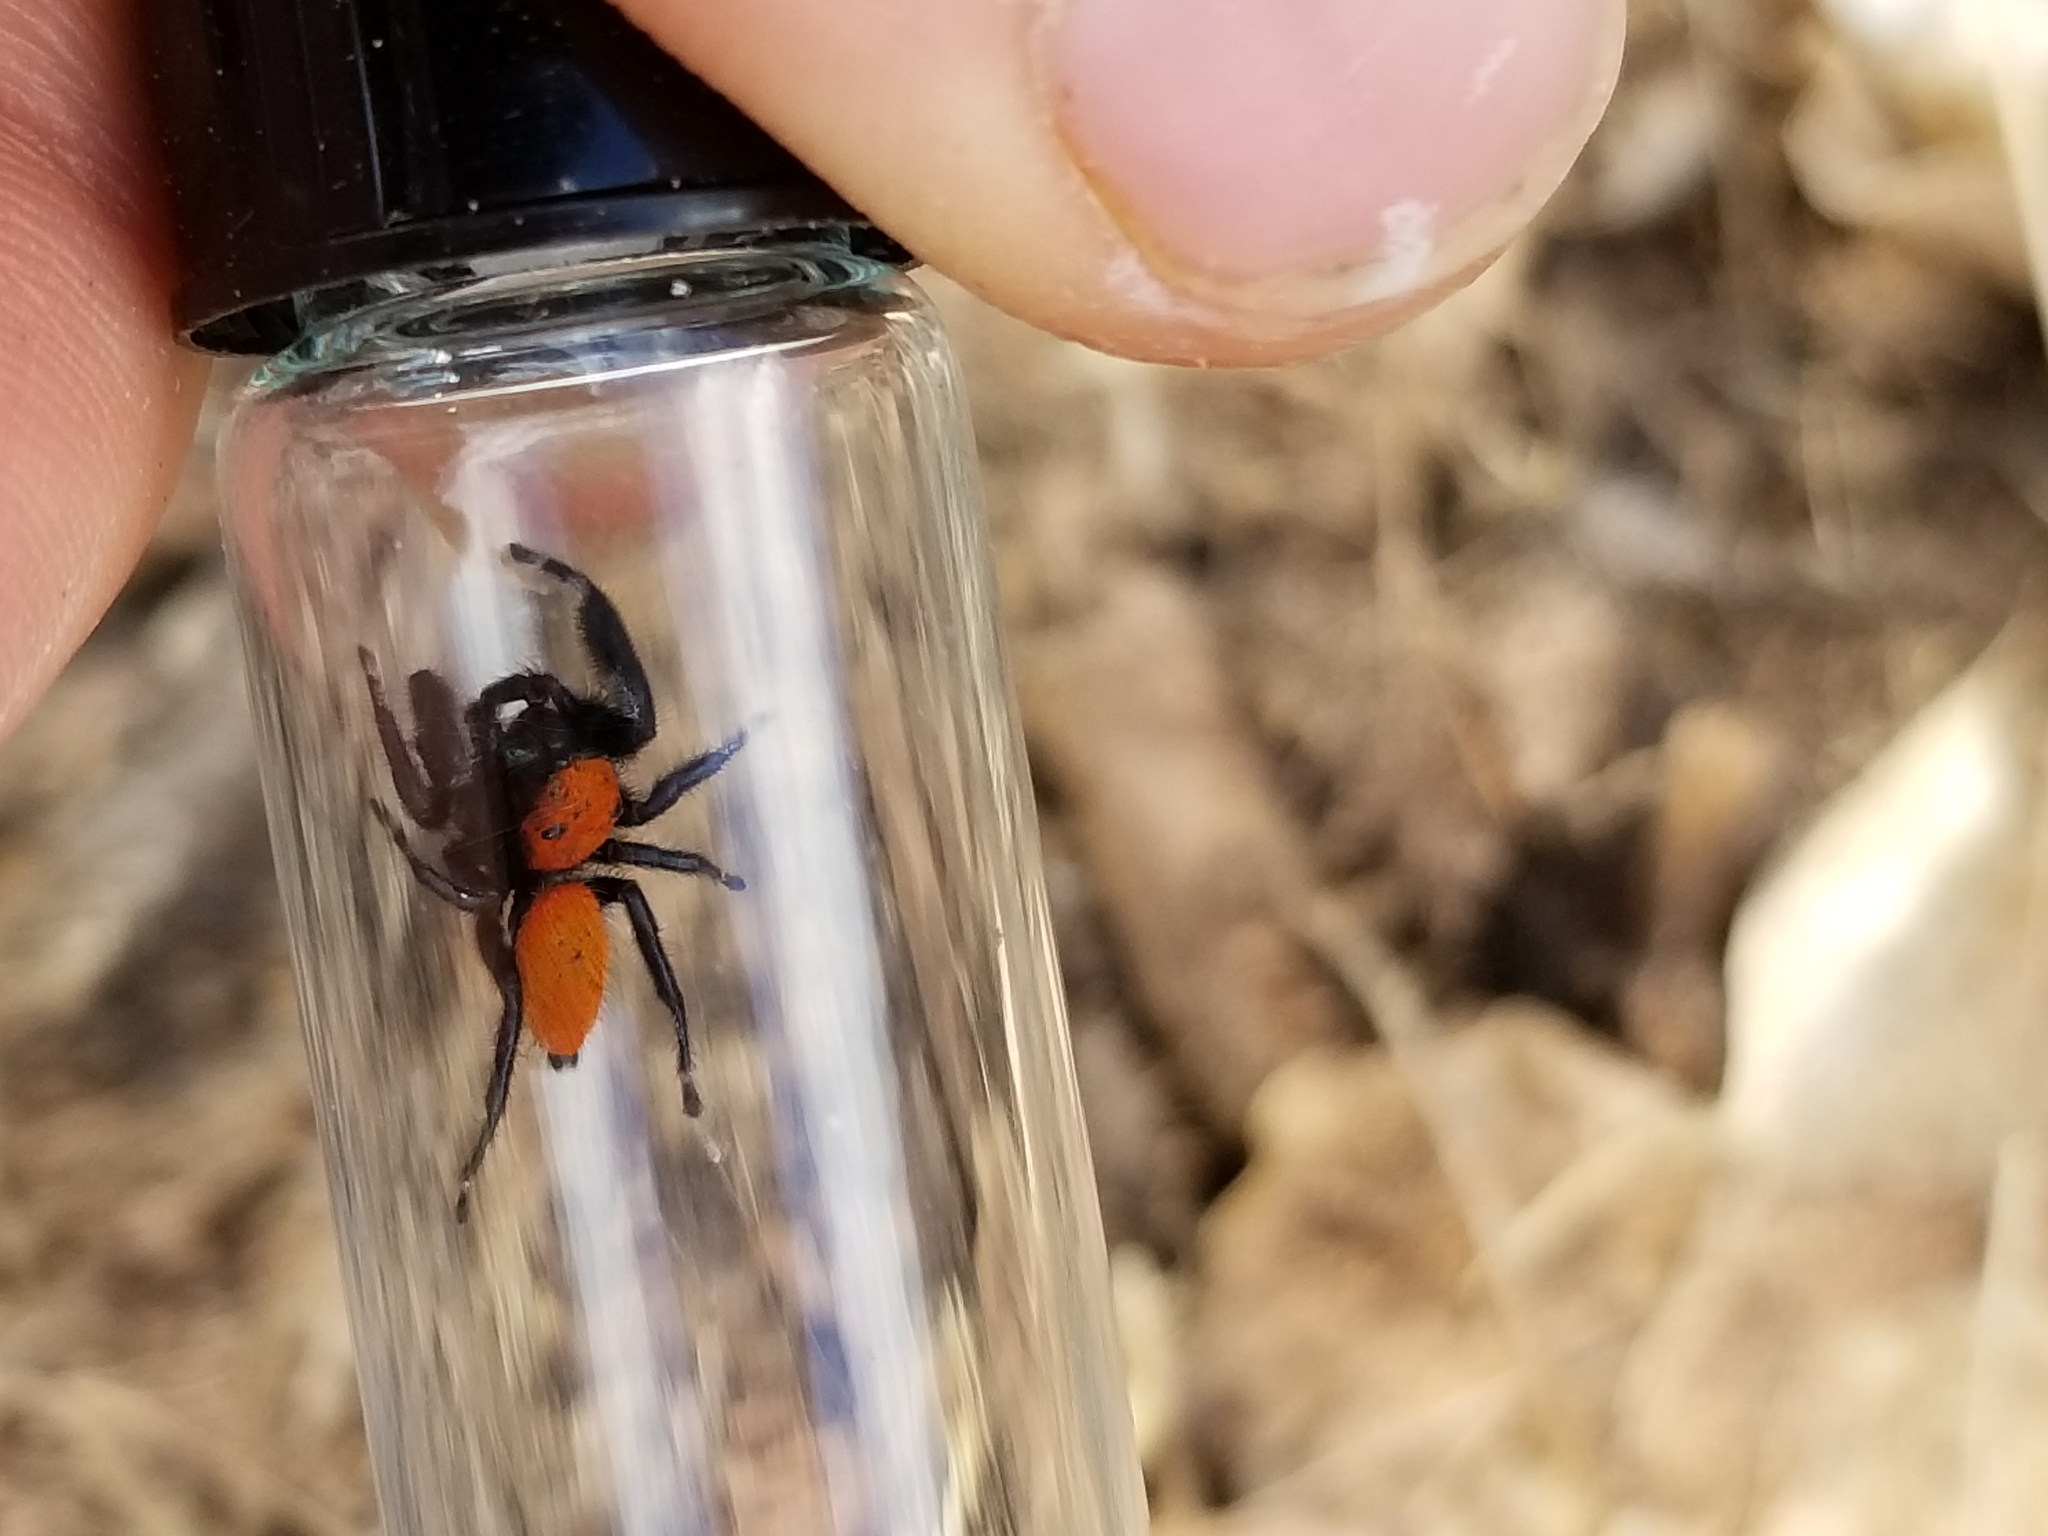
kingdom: Animalia
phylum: Arthropoda
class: Arachnida
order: Araneae
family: Salticidae
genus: Phidippus
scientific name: Phidippus apacheanus
